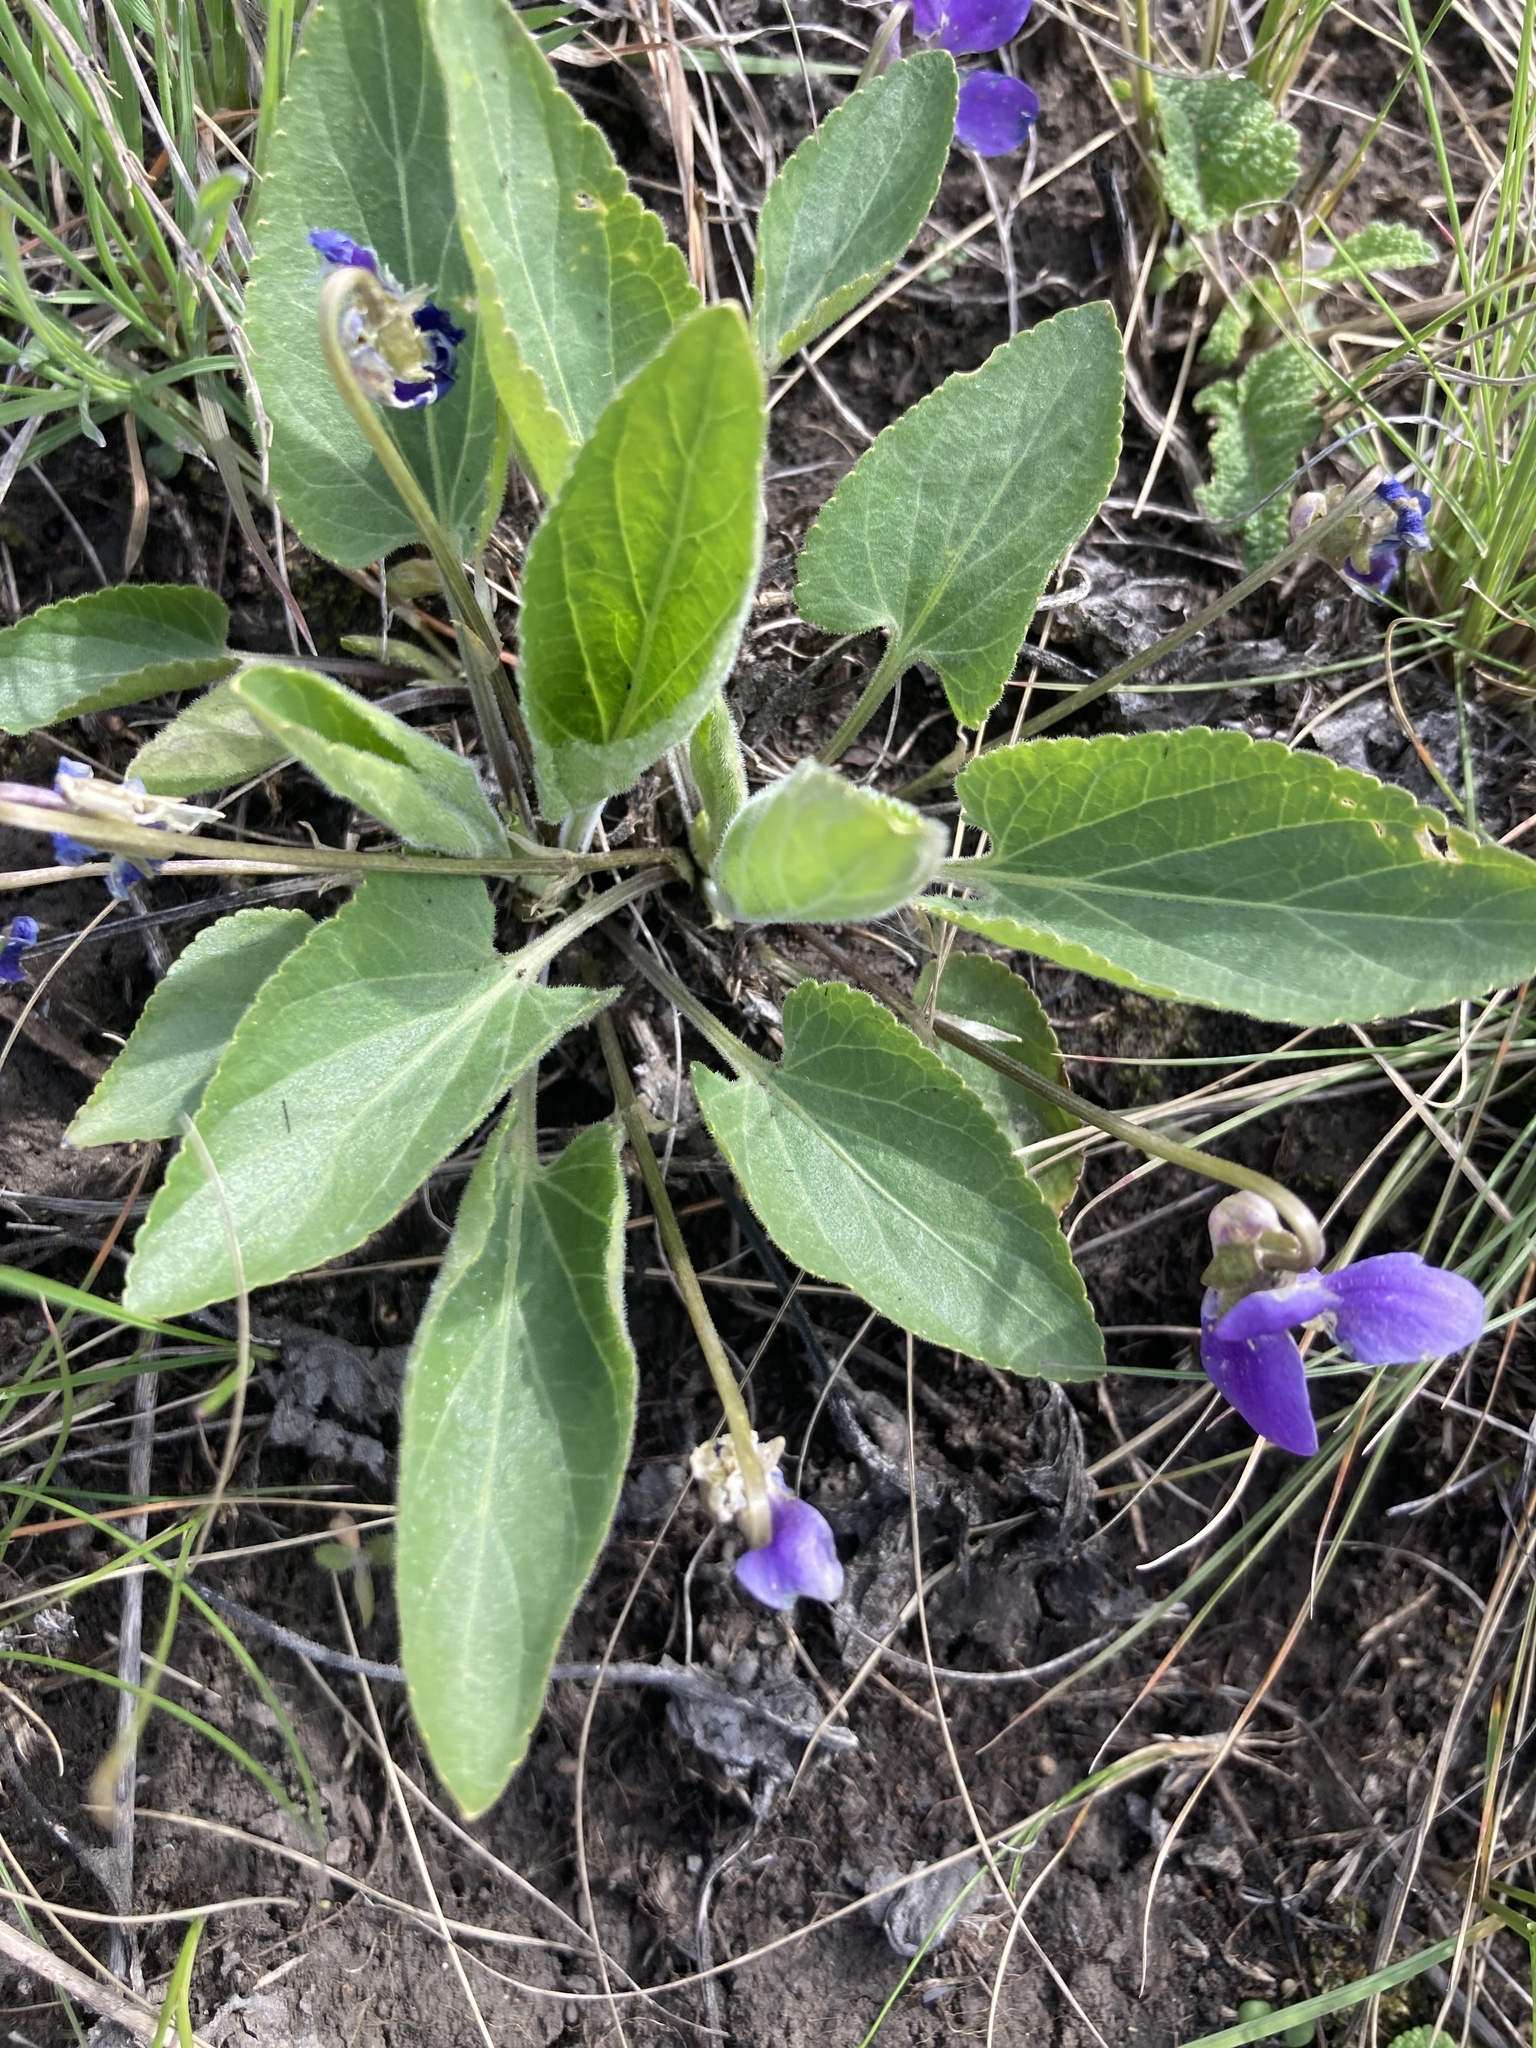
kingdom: Plantae
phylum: Tracheophyta
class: Magnoliopsida
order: Malpighiales
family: Violaceae
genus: Viola
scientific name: Viola ambigua
